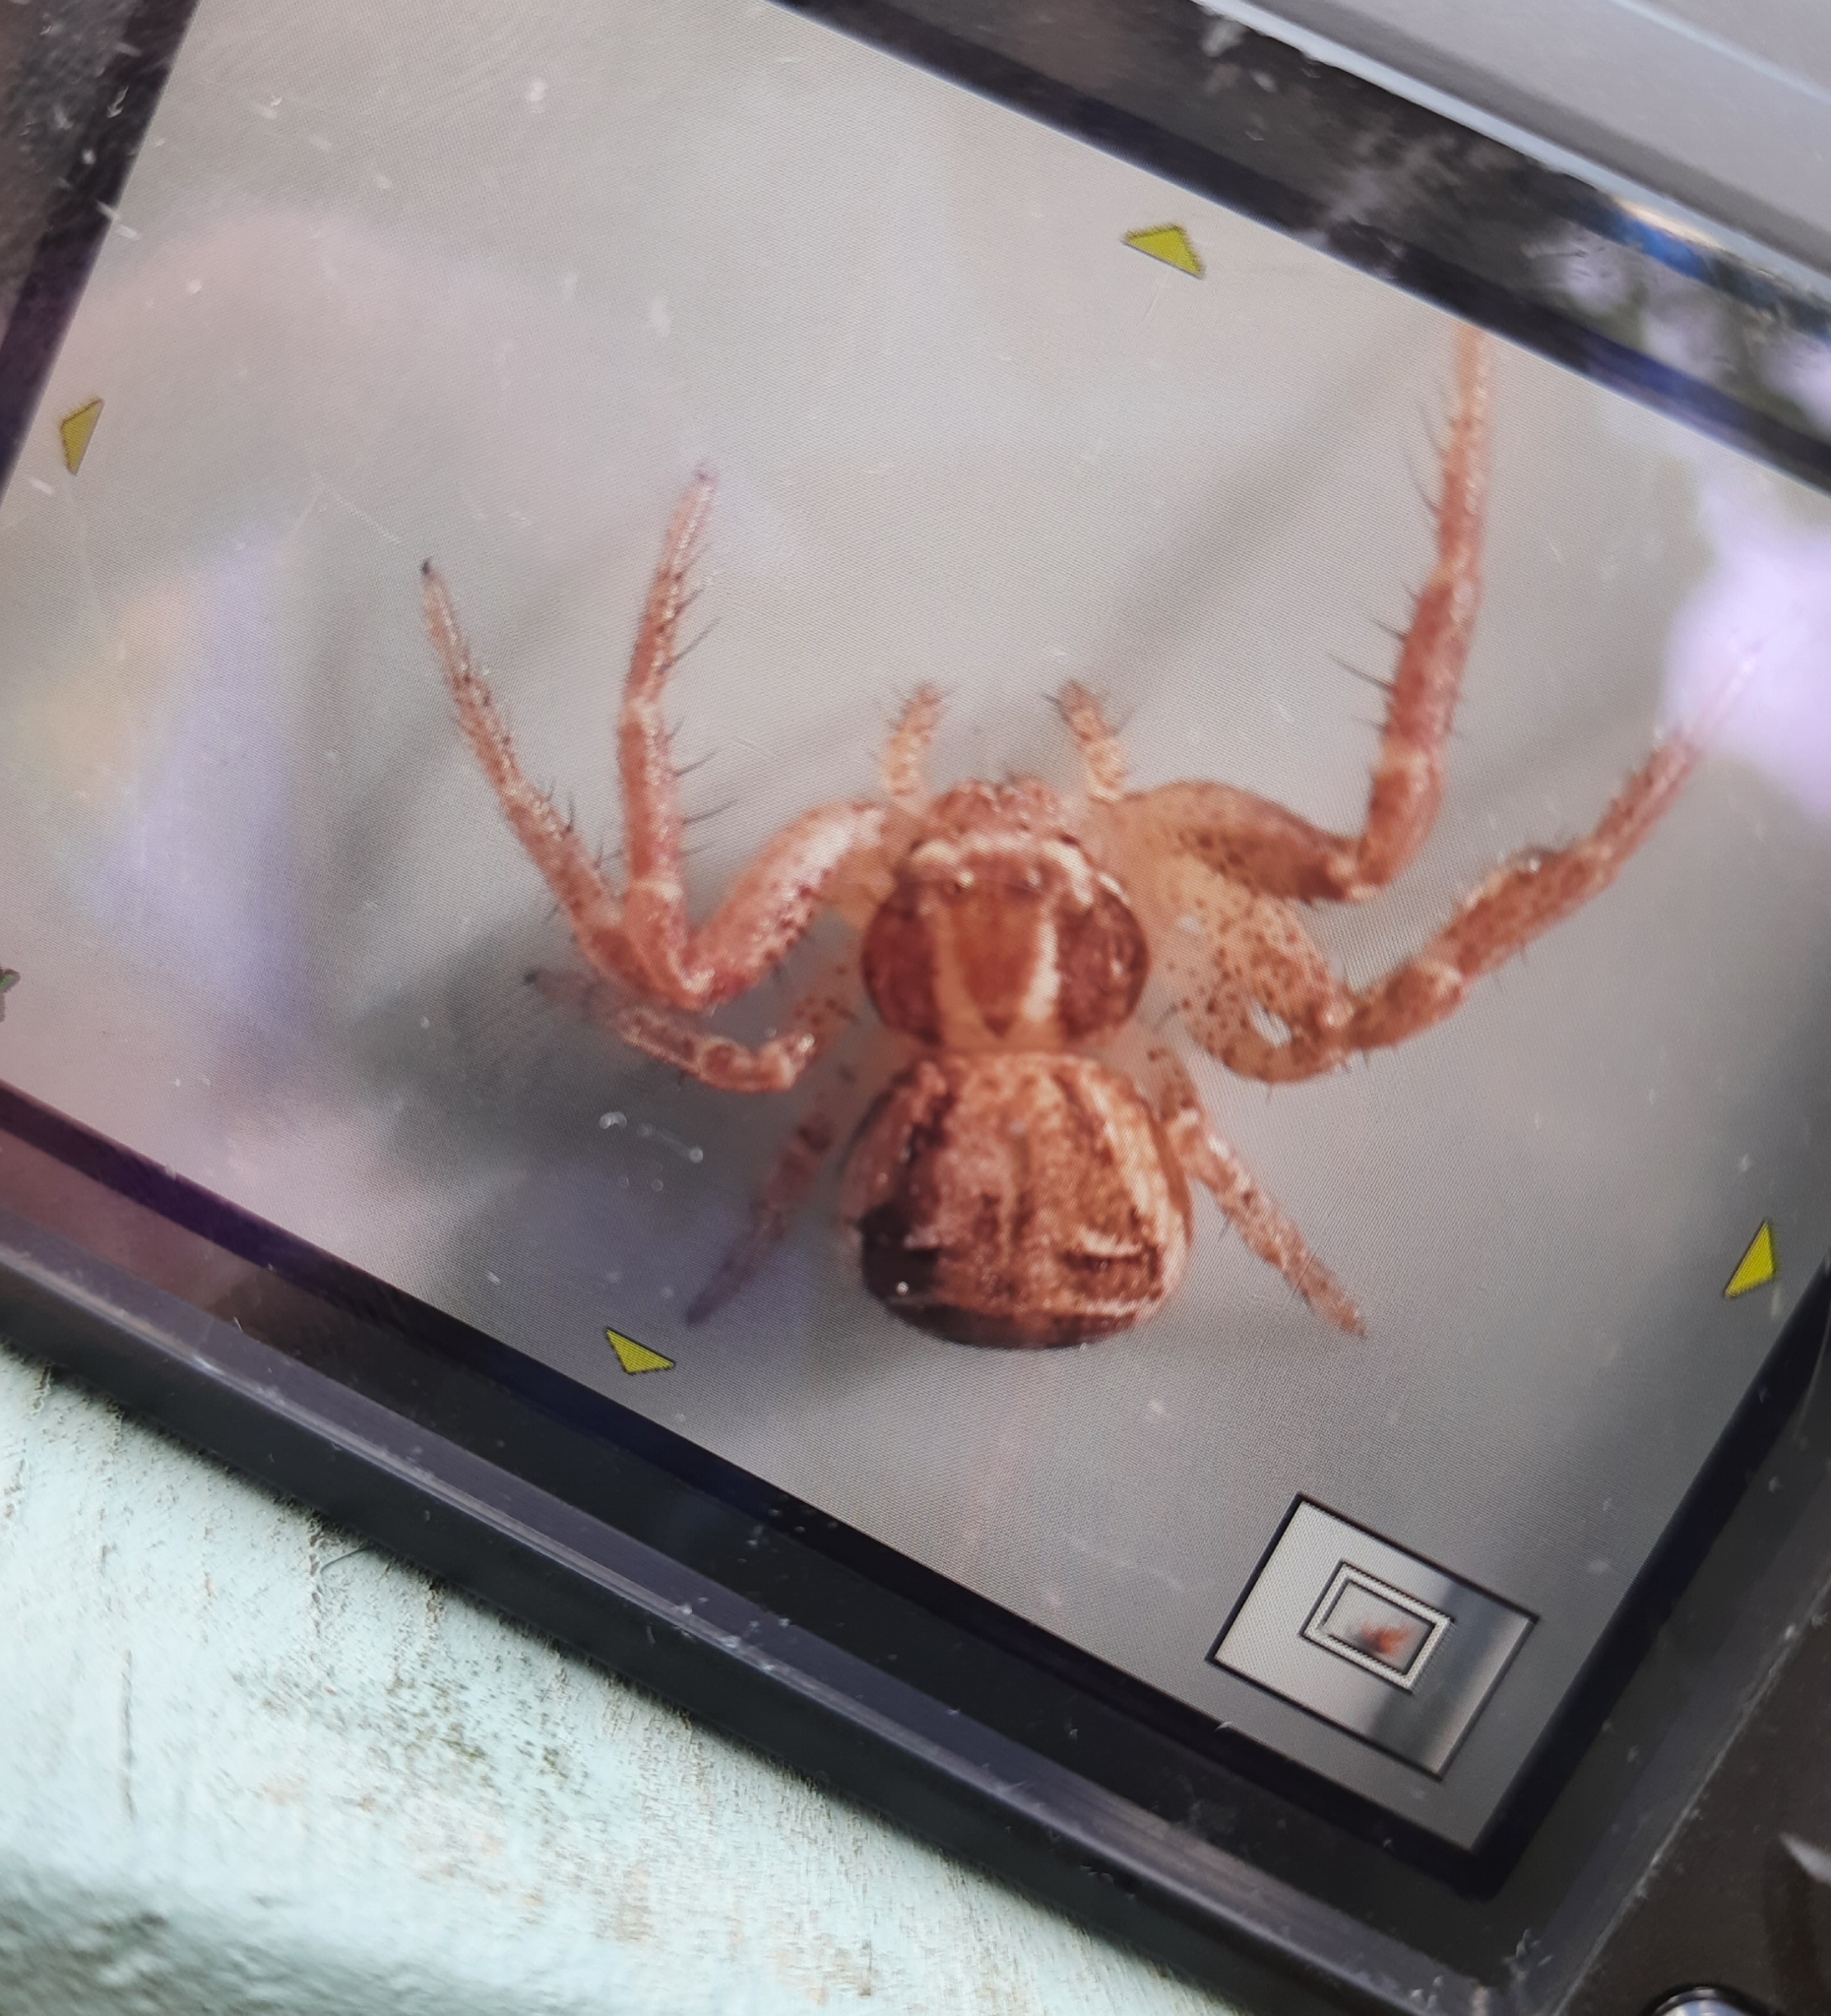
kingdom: Animalia
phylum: Arthropoda
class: Arachnida
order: Araneae
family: Thomisidae
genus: Xysticus
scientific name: Xysticus
